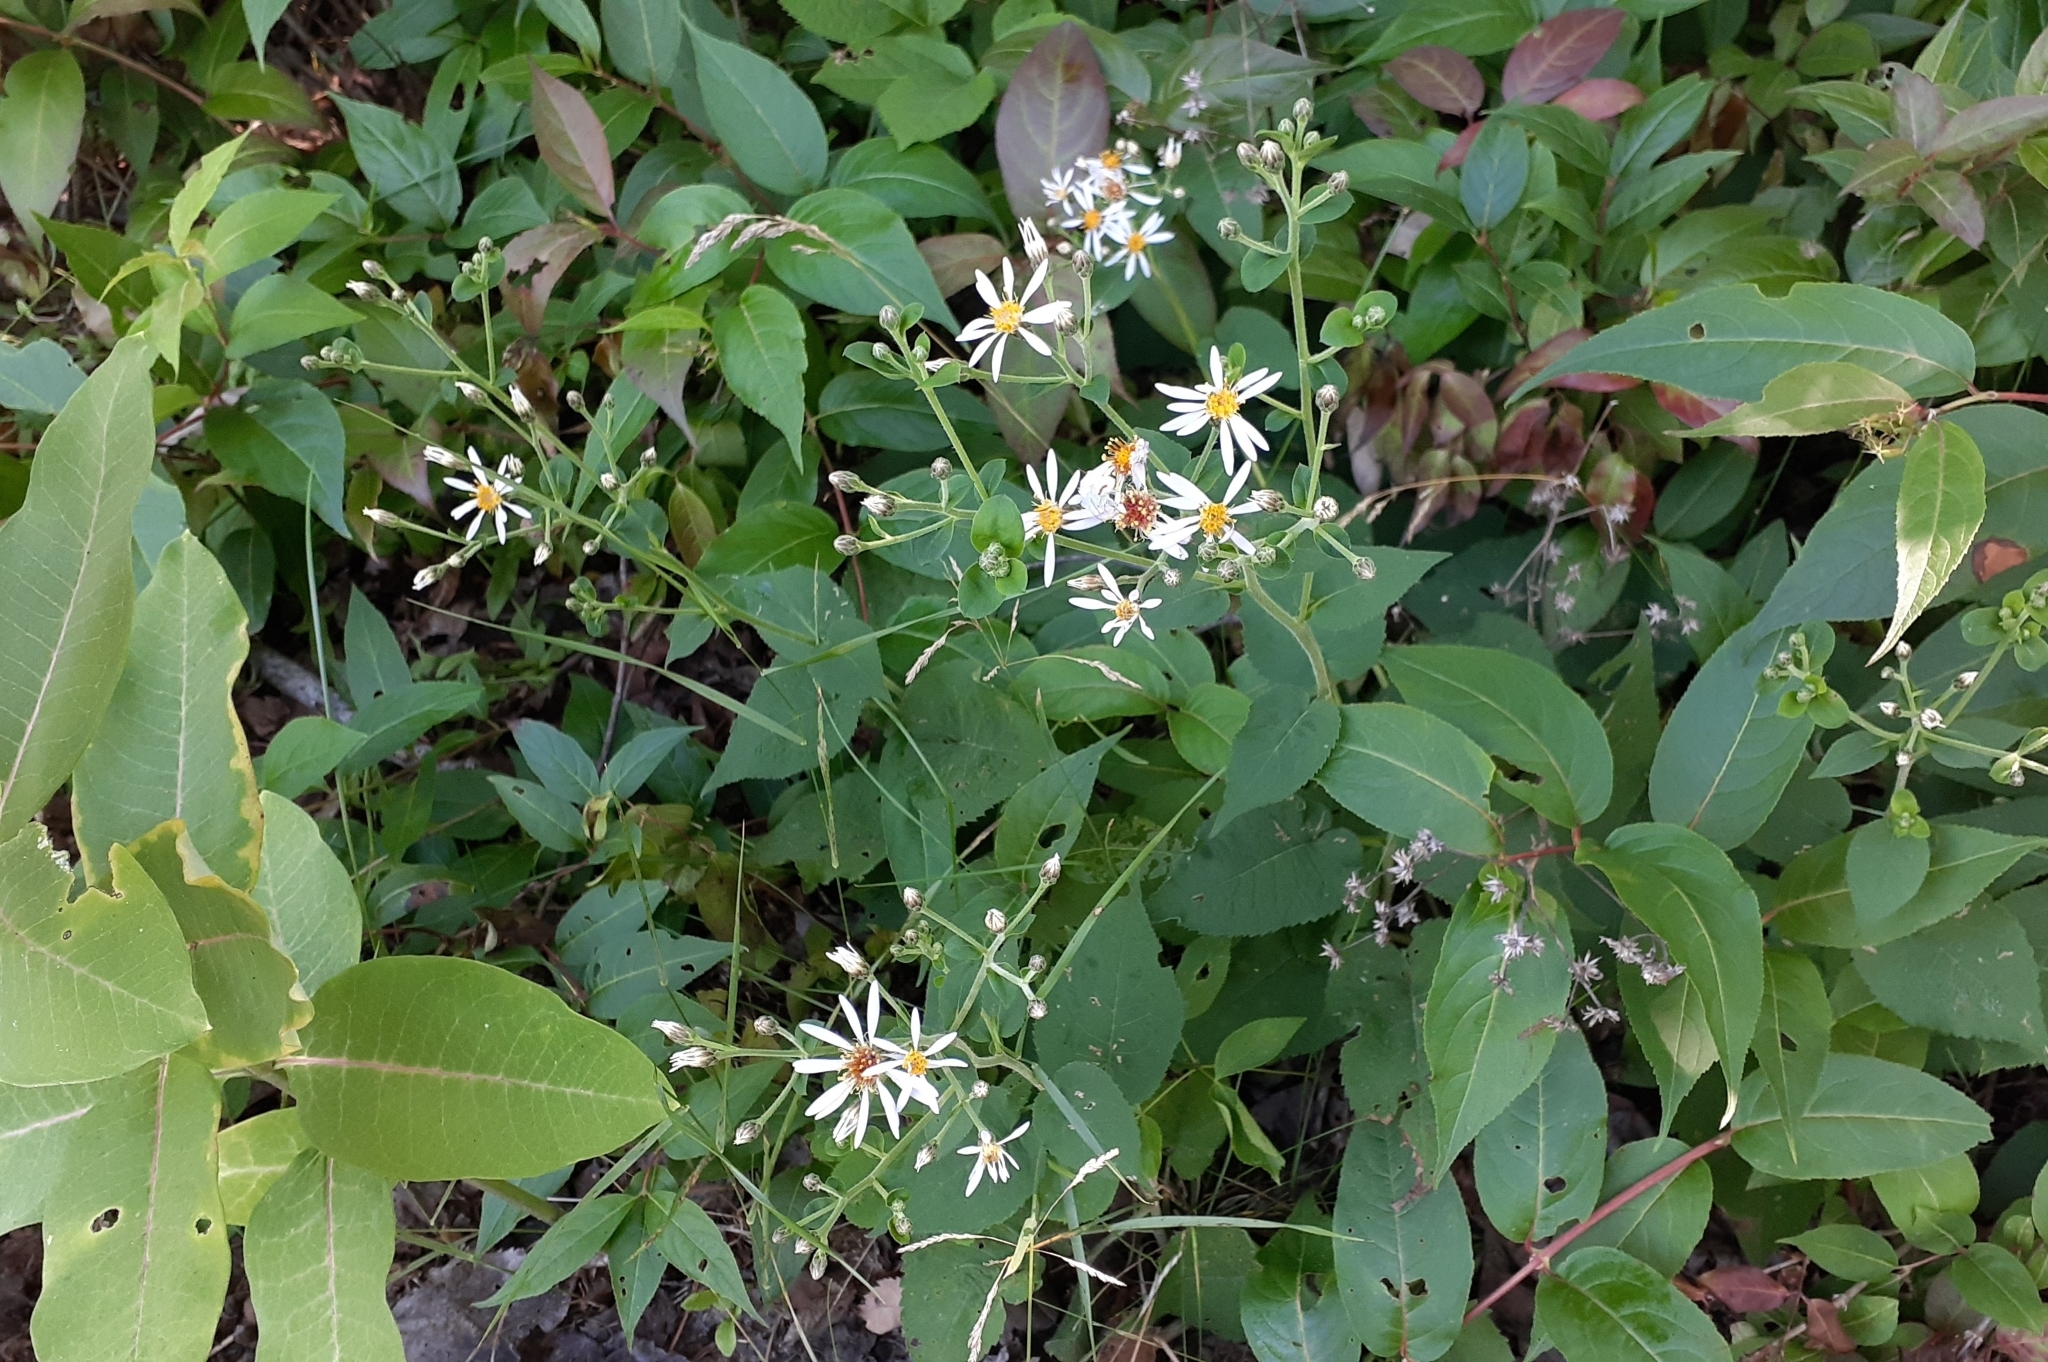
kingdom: Plantae
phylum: Tracheophyta
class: Magnoliopsida
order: Asterales
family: Asteraceae
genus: Eurybia
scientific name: Eurybia macrophylla
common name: Big-leaved aster
